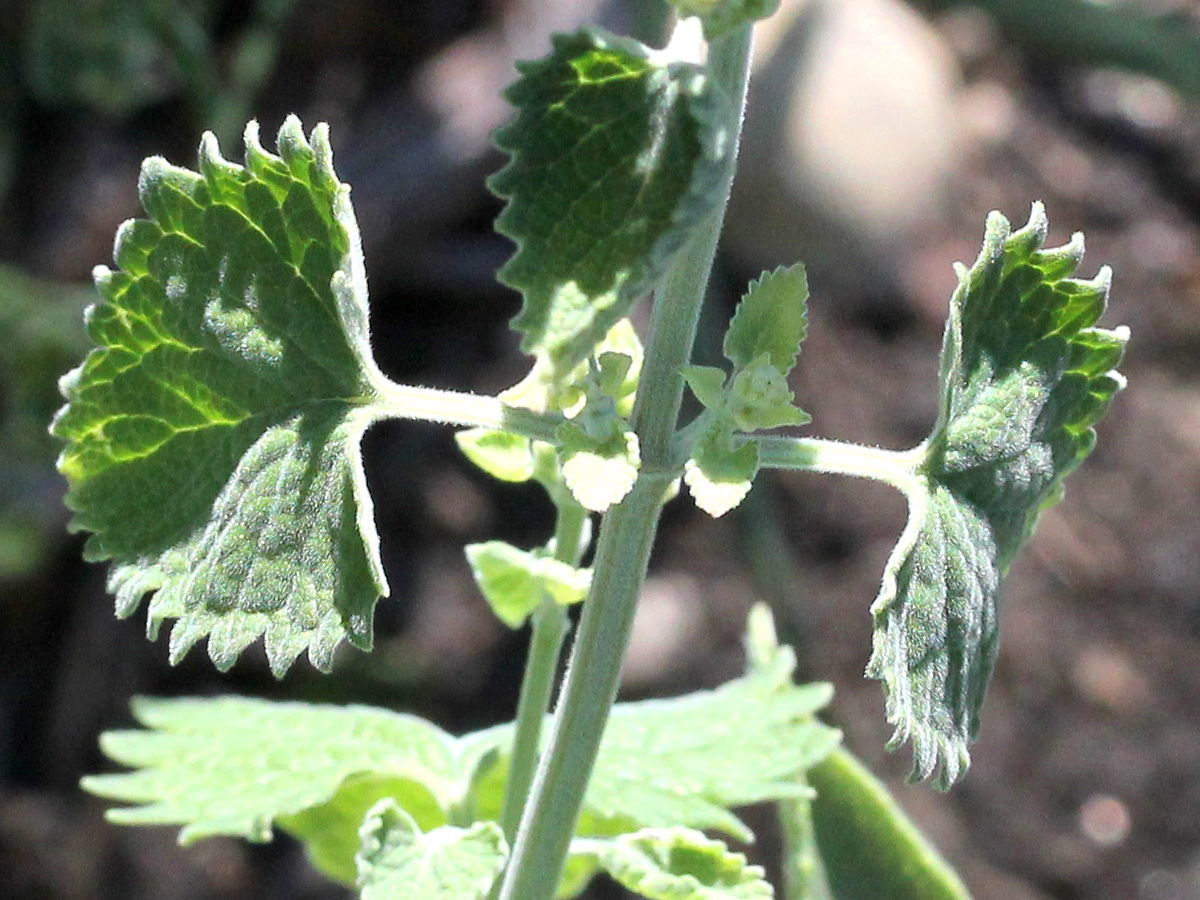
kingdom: Plantae
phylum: Tracheophyta
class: Magnoliopsida
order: Lamiales
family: Lamiaceae
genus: Nepeta
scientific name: Nepeta cataria
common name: Catnip
